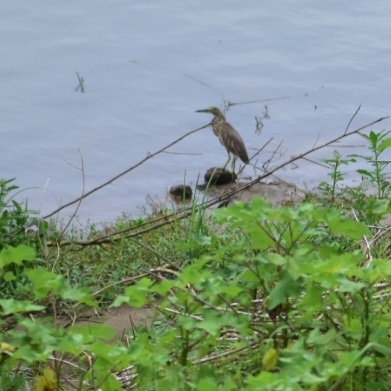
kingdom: Animalia
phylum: Chordata
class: Aves
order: Pelecaniformes
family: Ardeidae
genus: Ardeola
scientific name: Ardeola grayii
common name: Indian pond heron
